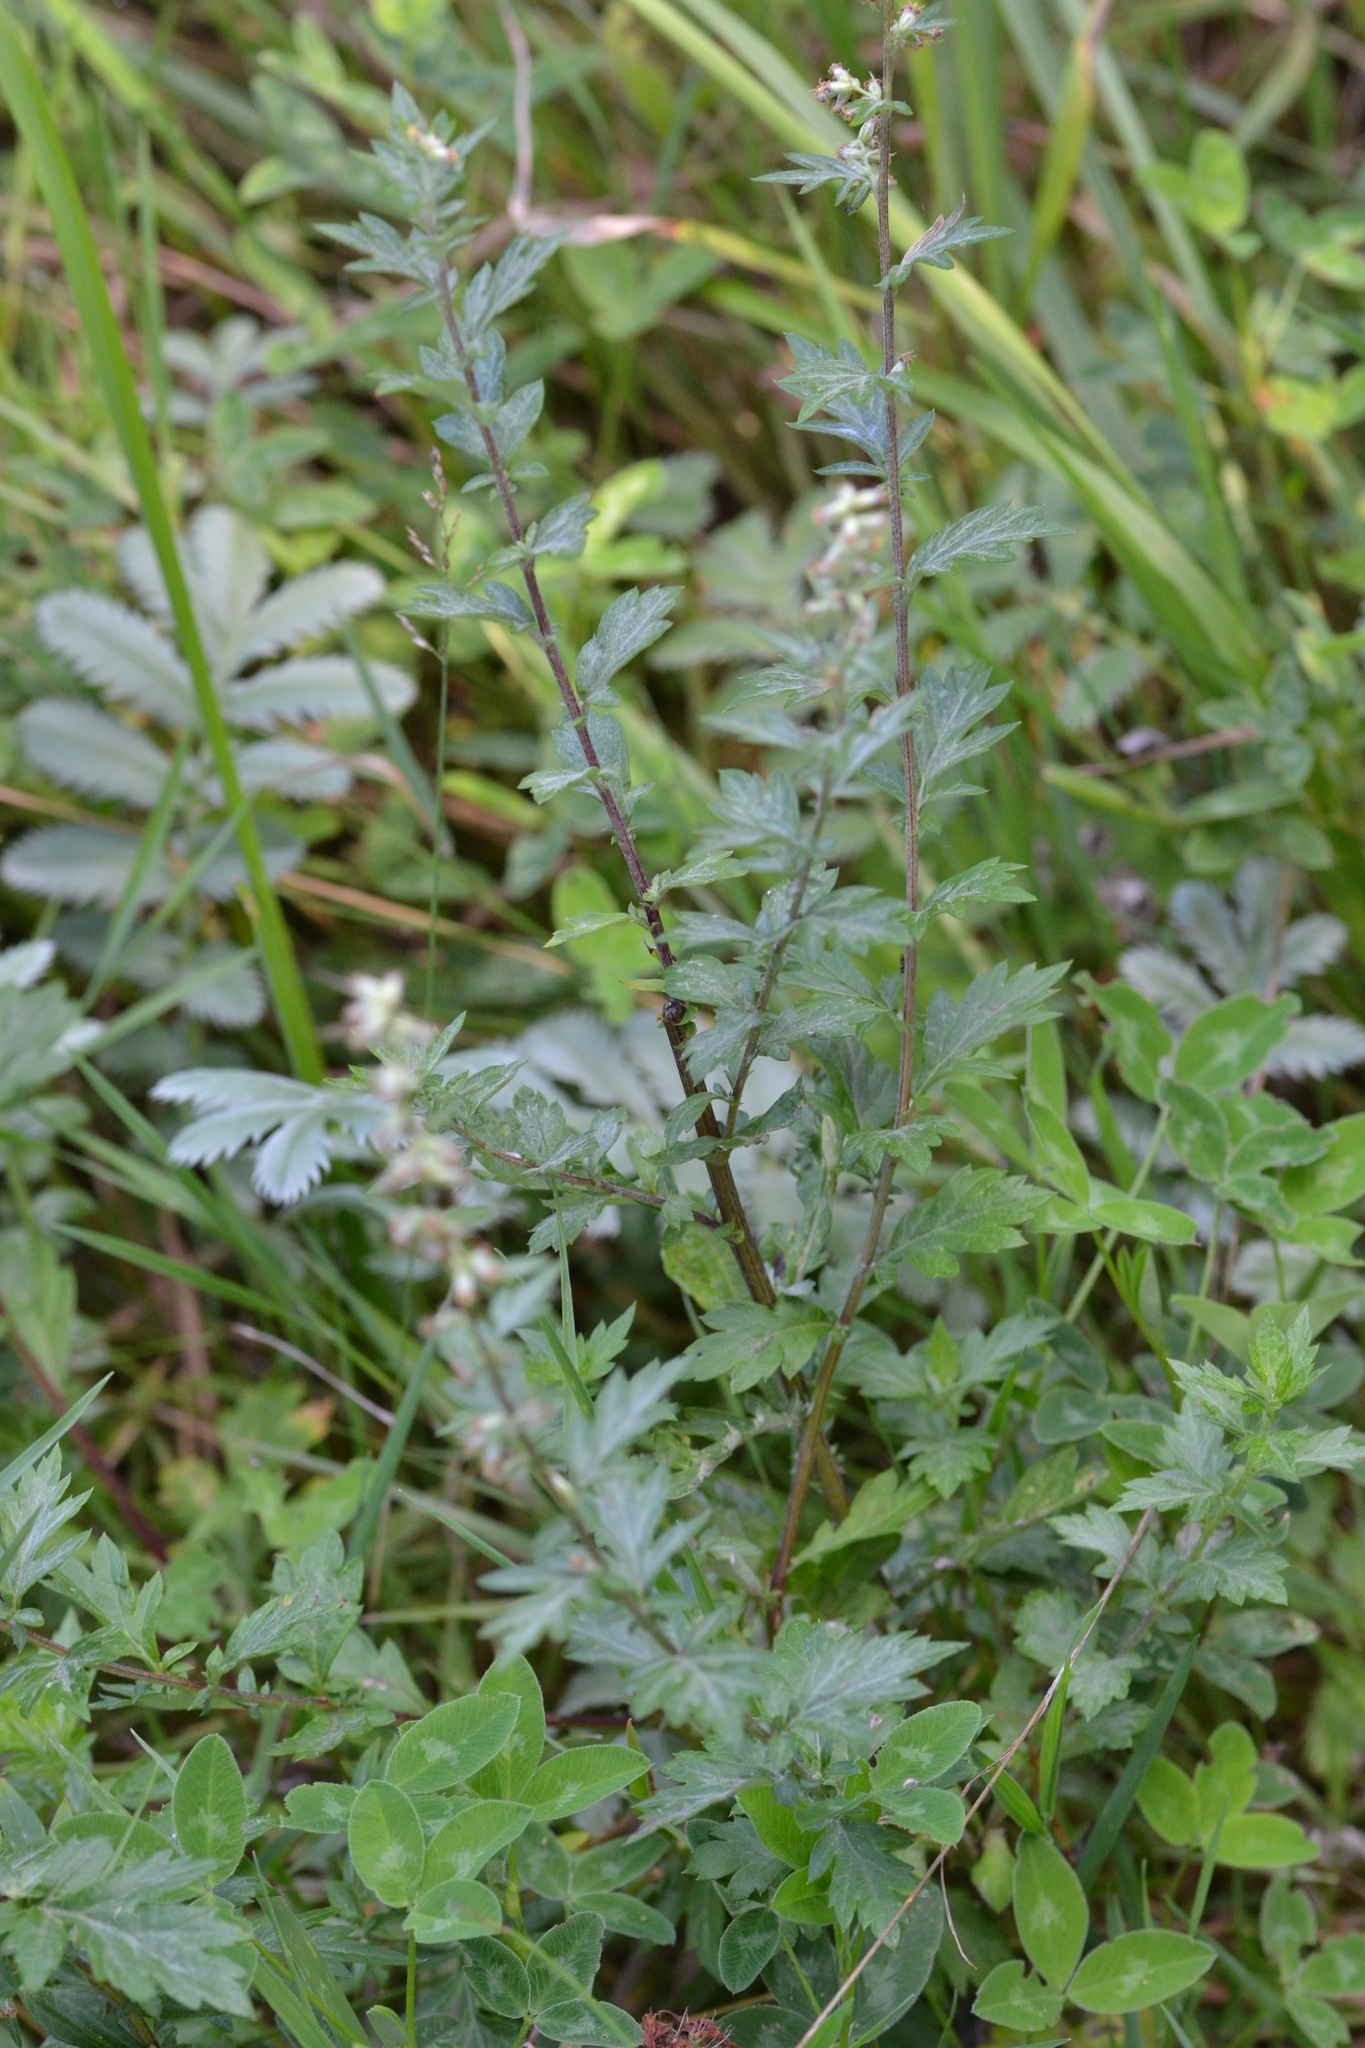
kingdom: Plantae
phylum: Tracheophyta
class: Magnoliopsida
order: Asterales
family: Asteraceae
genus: Artemisia
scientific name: Artemisia vulgaris
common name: Mugwort
